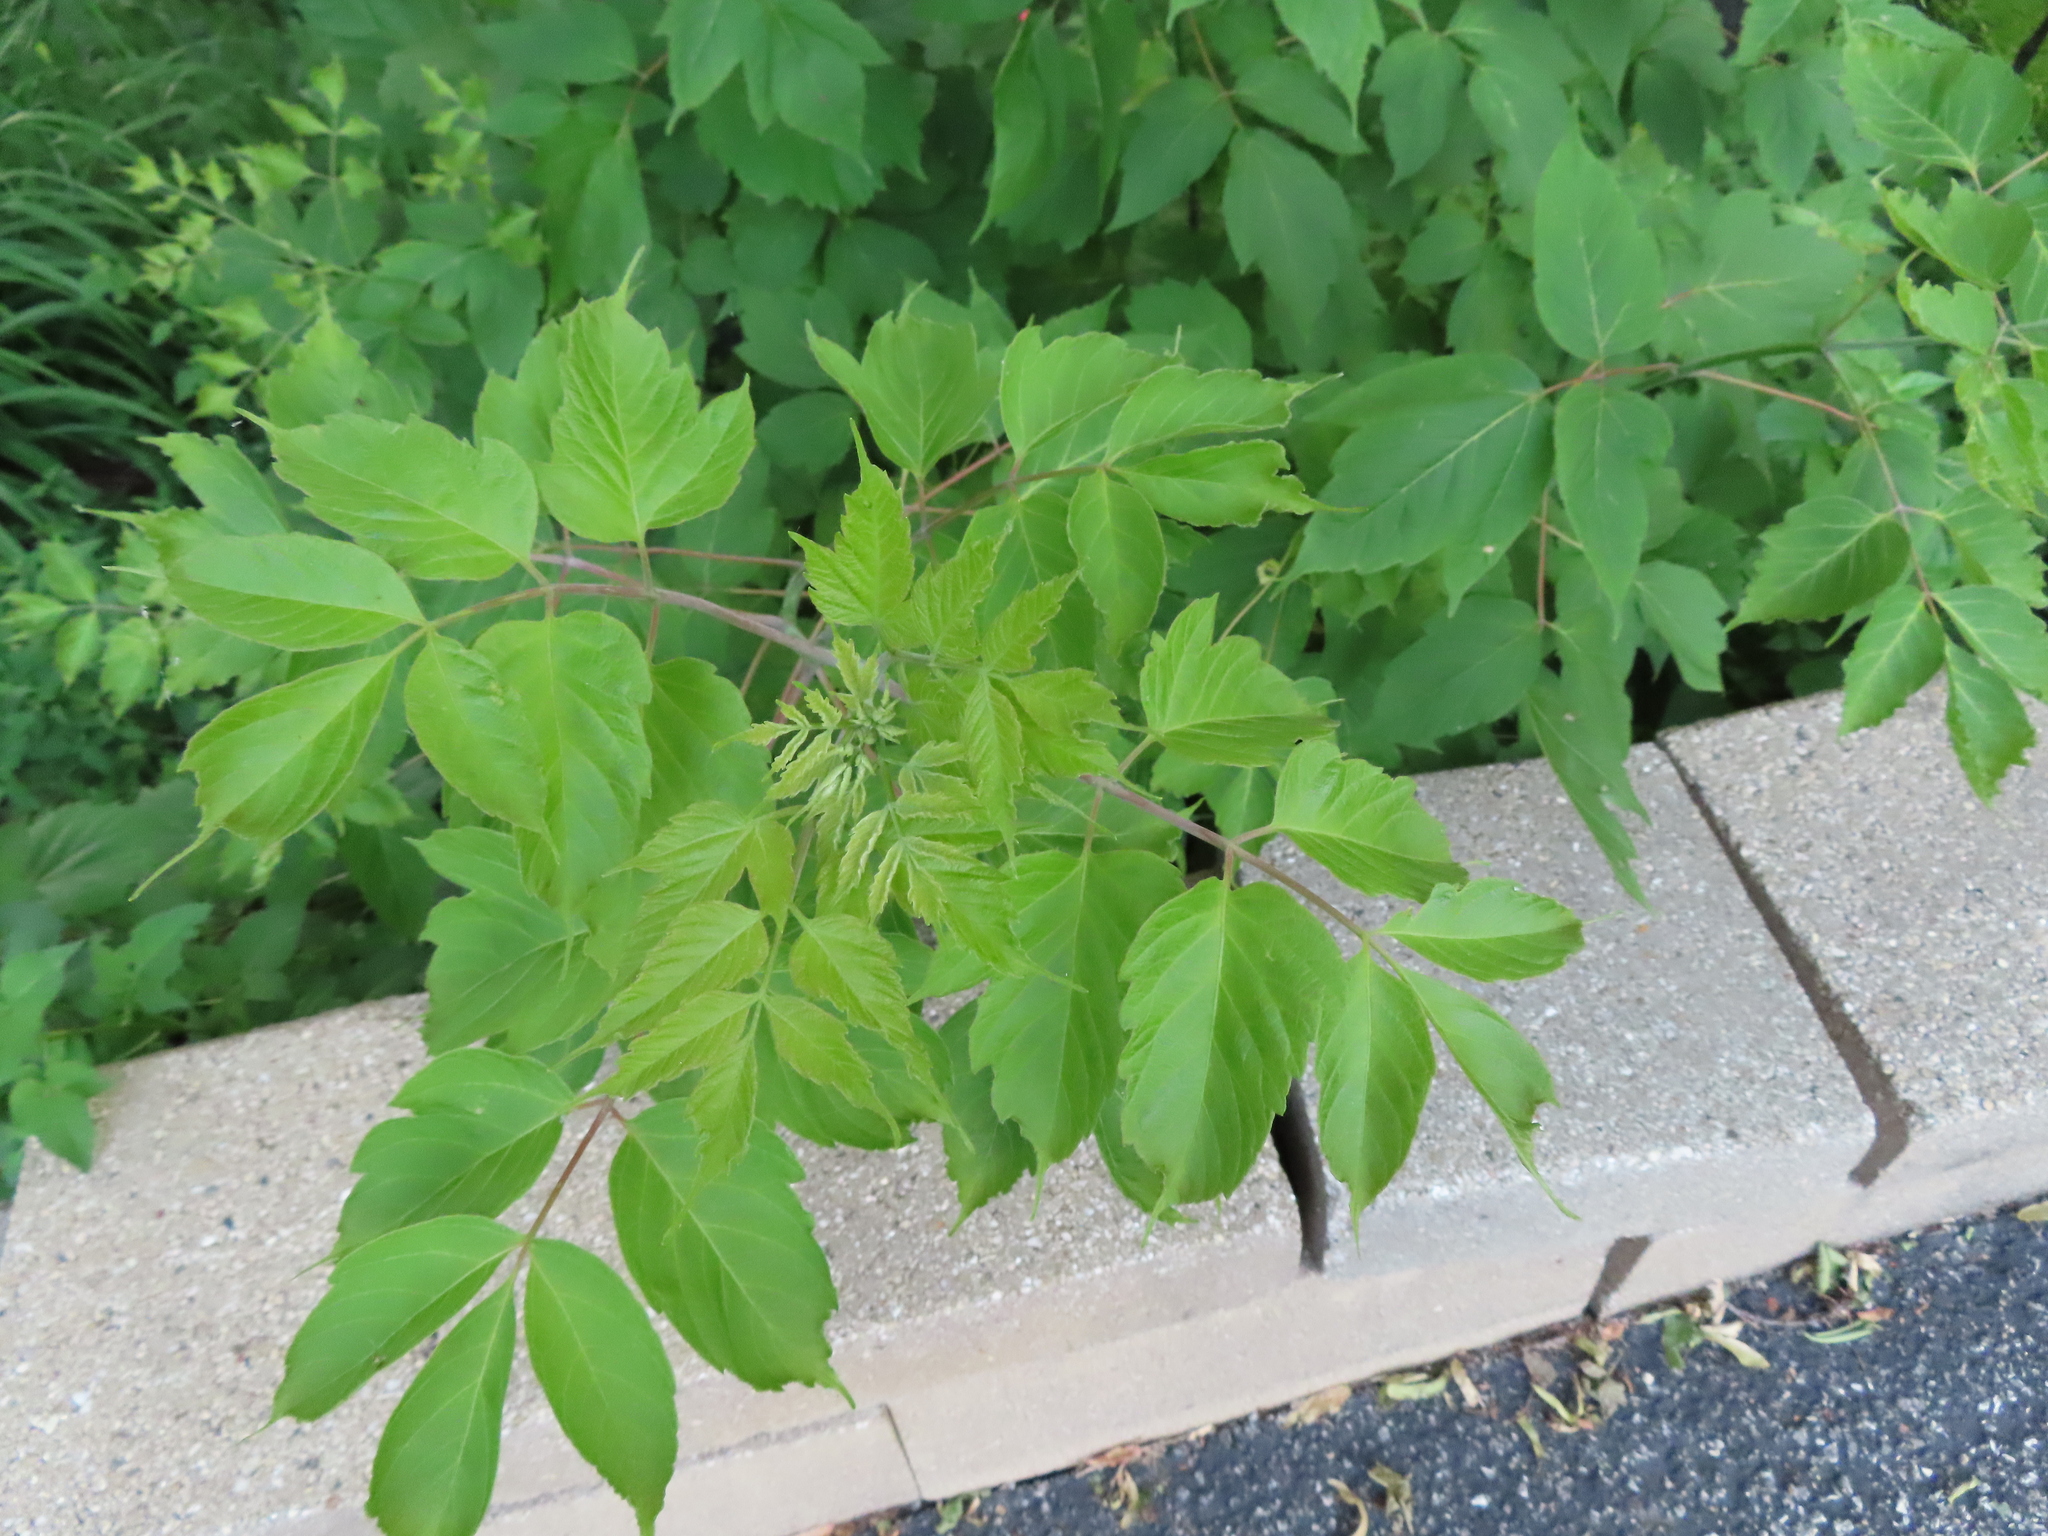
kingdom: Plantae
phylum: Tracheophyta
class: Magnoliopsida
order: Sapindales
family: Sapindaceae
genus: Acer
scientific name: Acer negundo
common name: Ashleaf maple
